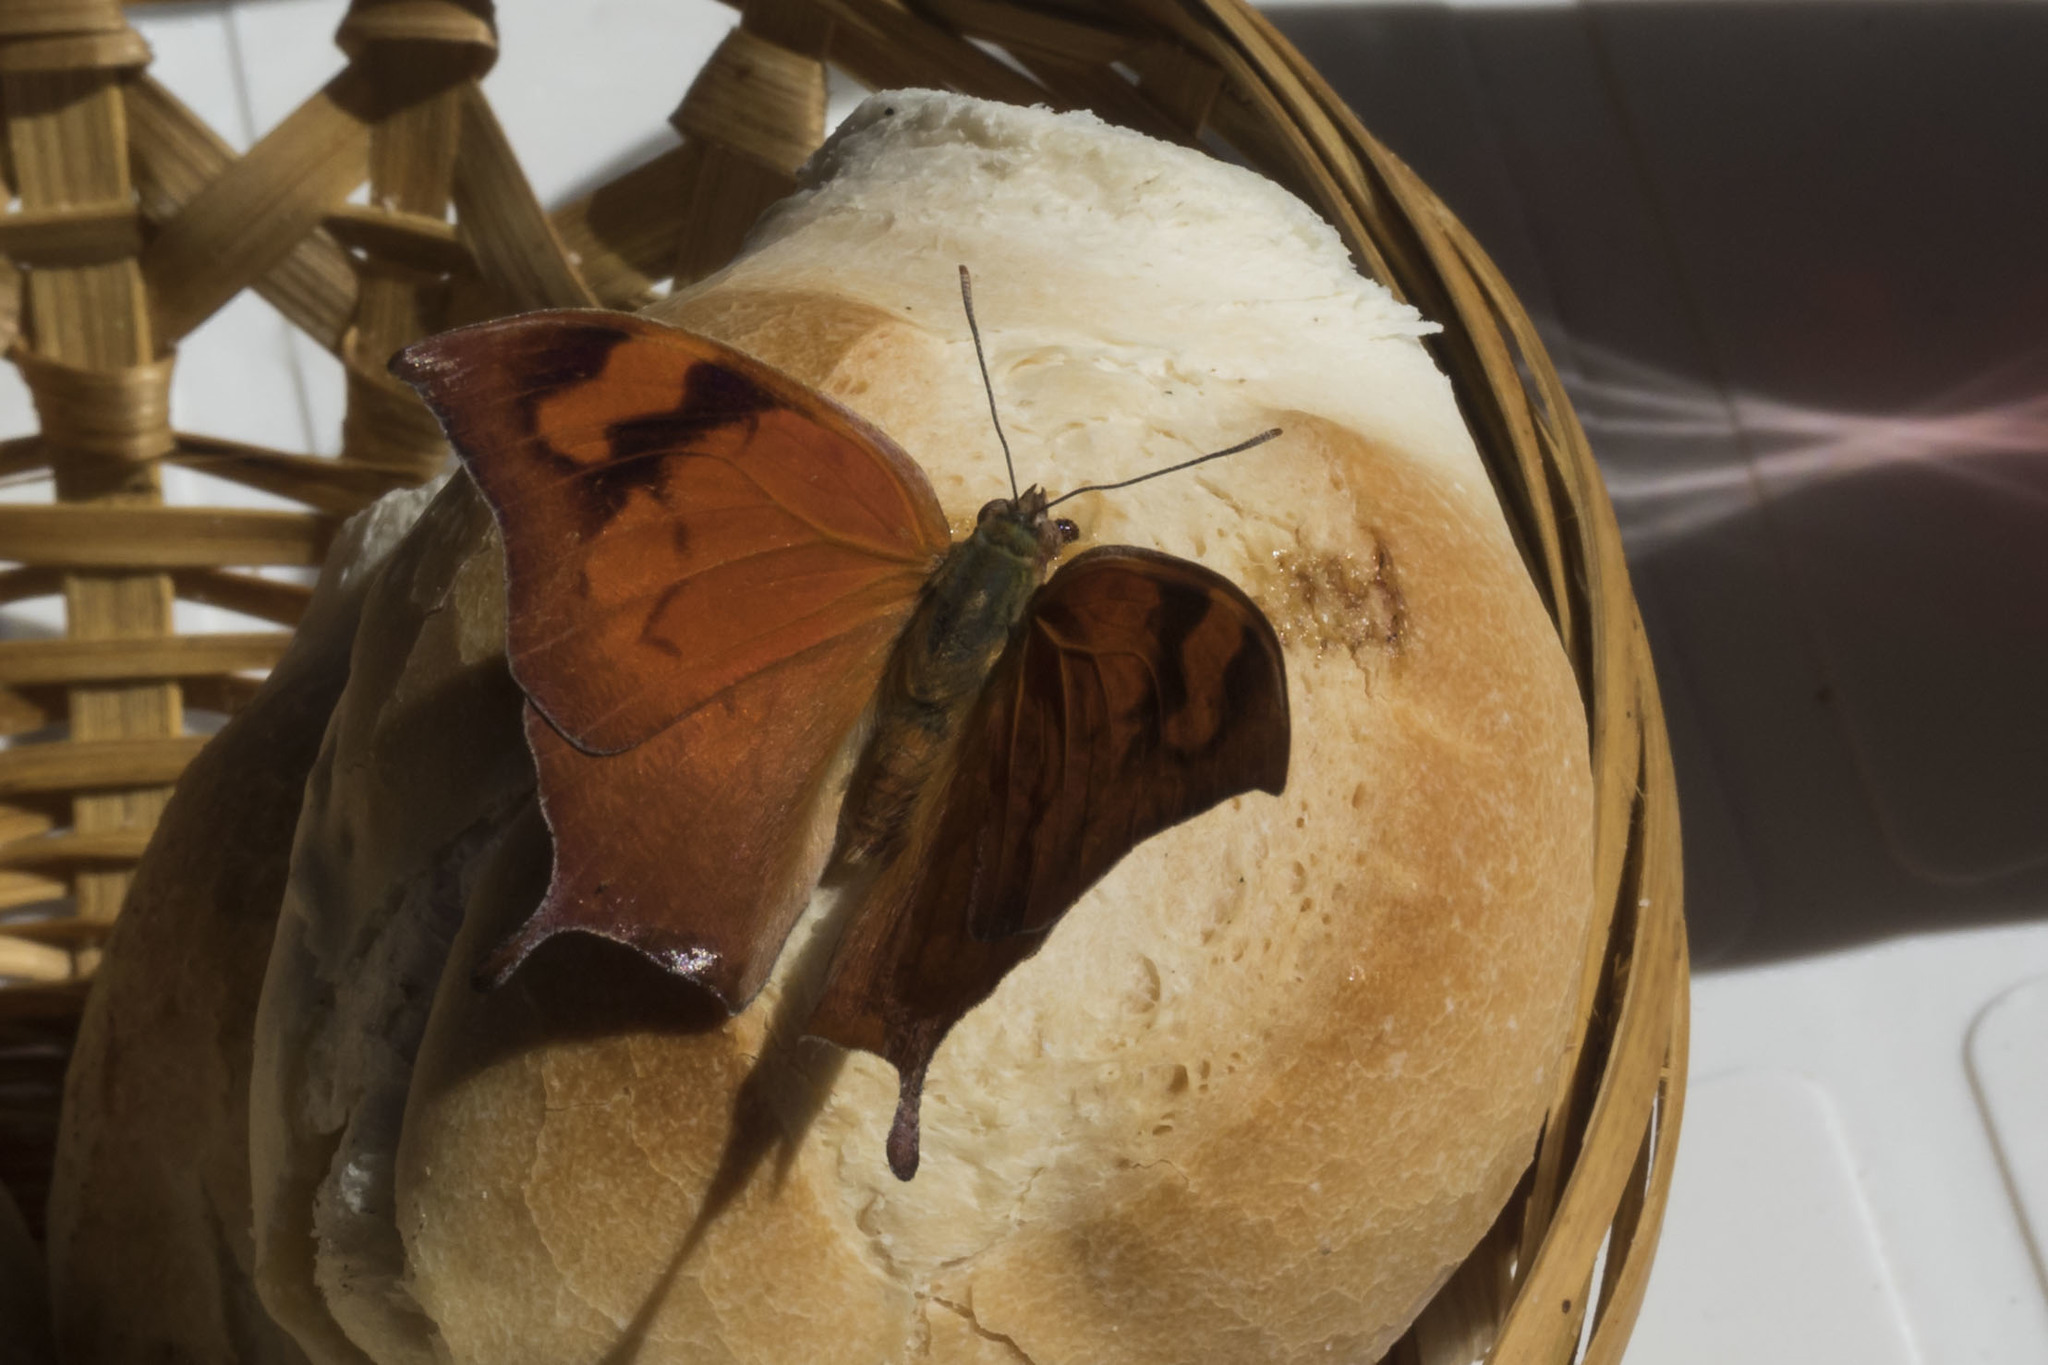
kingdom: Animalia
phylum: Arthropoda
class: Insecta
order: Lepidoptera
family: Nymphalidae
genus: Fountainea
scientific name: Fountainea
